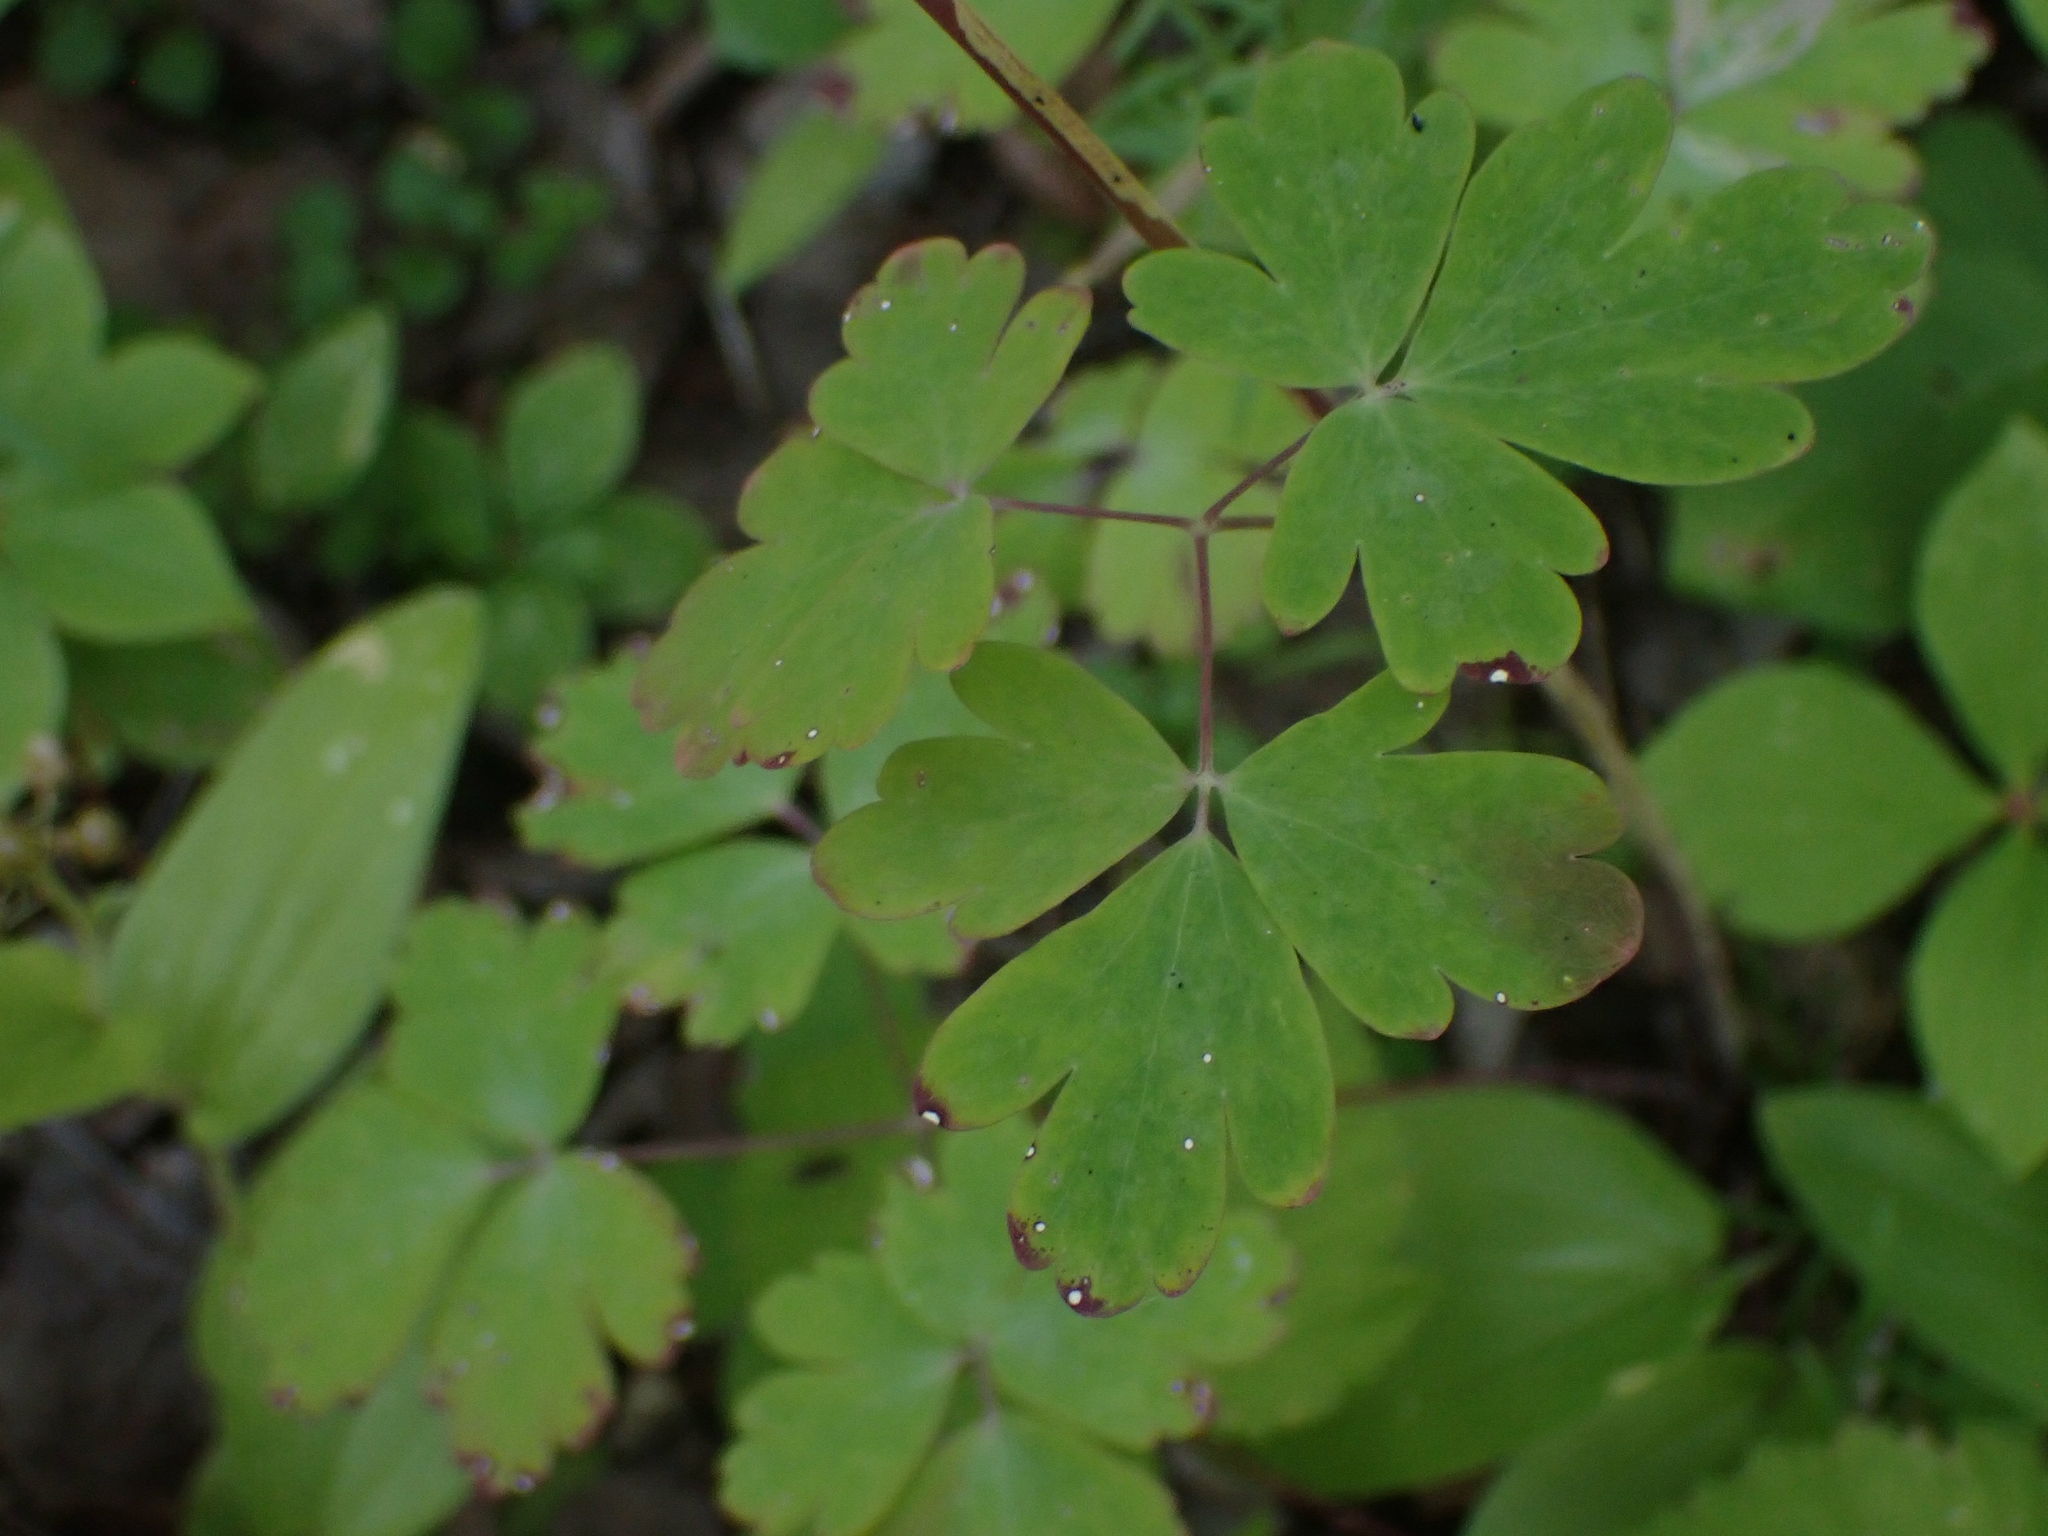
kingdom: Plantae
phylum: Tracheophyta
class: Magnoliopsida
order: Ranunculales
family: Ranunculaceae
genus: Aquilegia
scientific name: Aquilegia canadensis
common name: American columbine
